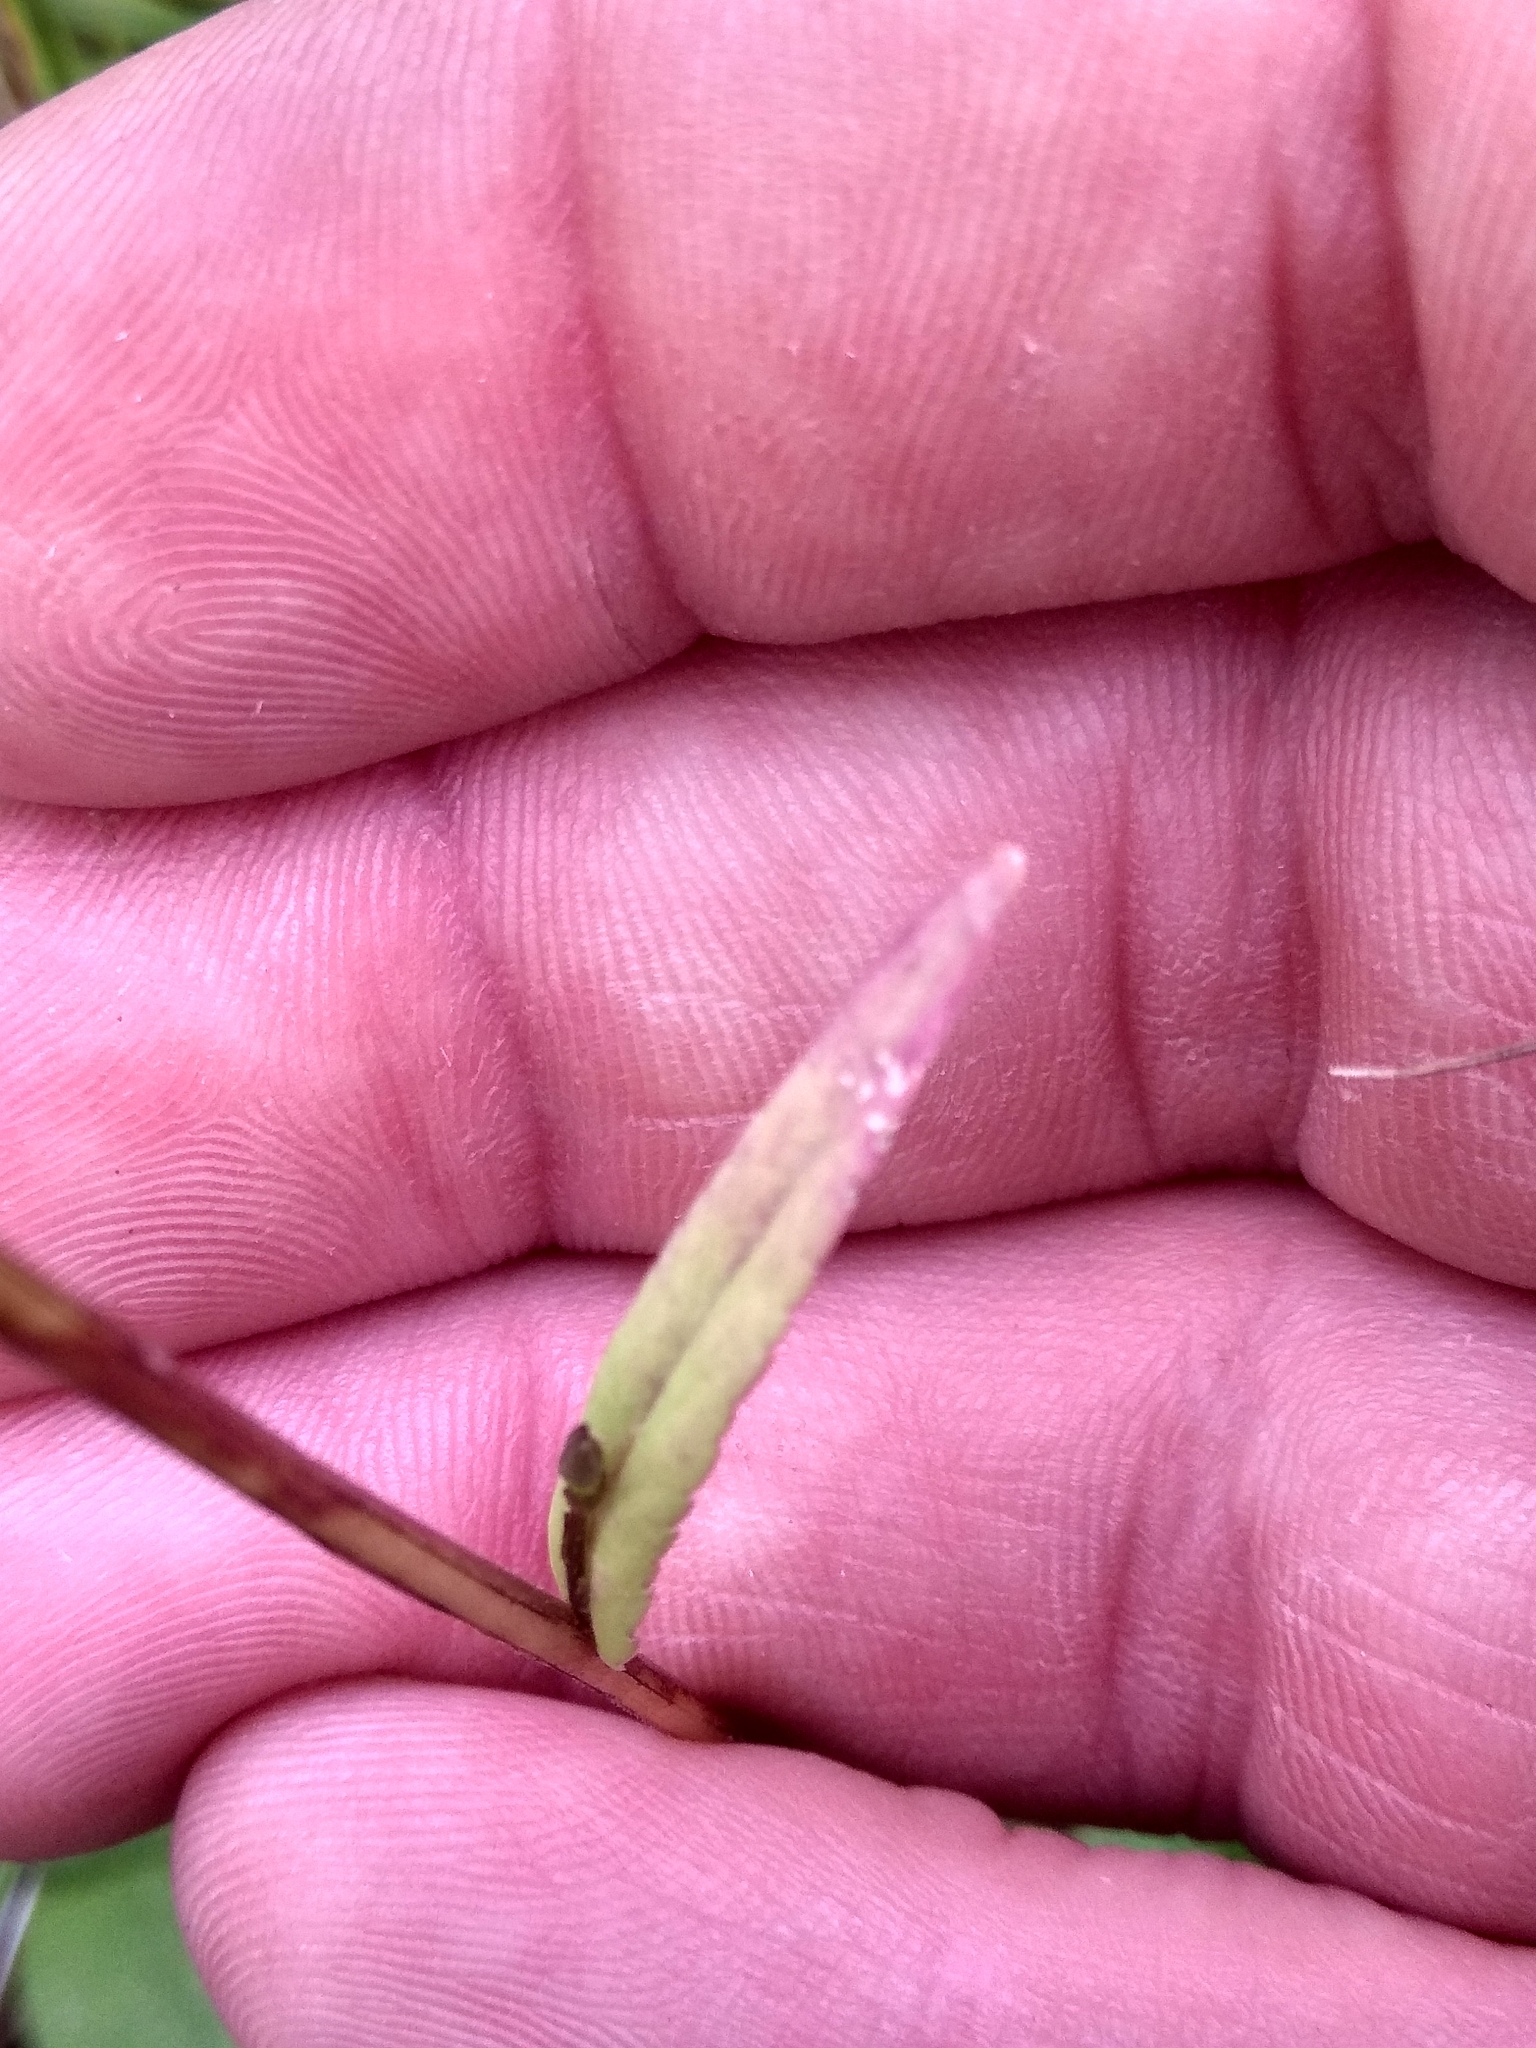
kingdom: Plantae
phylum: Tracheophyta
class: Magnoliopsida
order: Asterales
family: Campanulaceae
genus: Campanula
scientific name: Campanula patula
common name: Spreading bellflower
